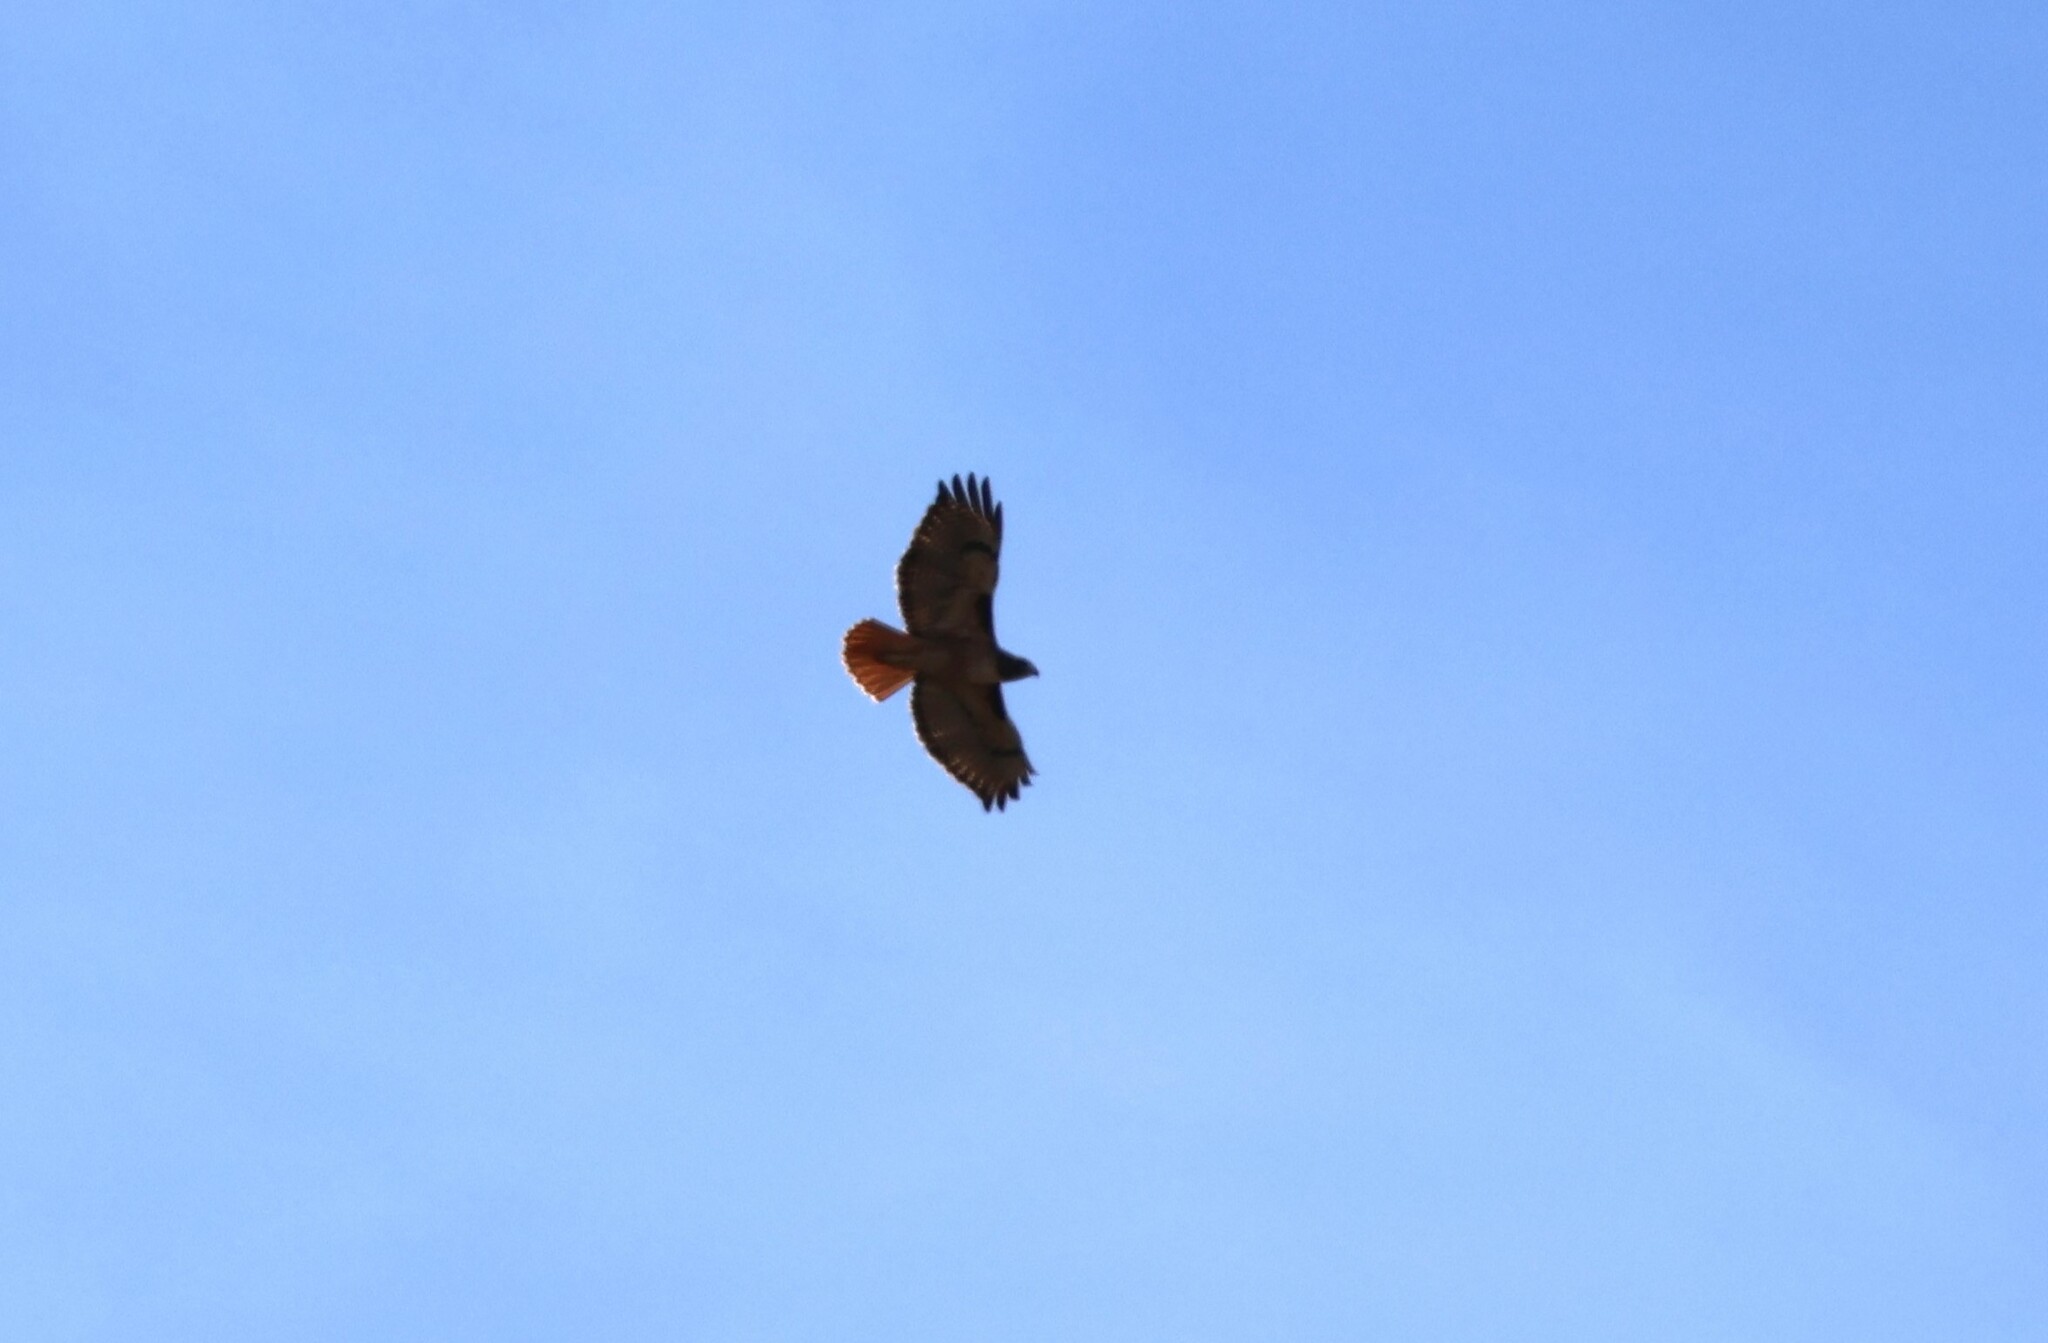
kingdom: Animalia
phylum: Chordata
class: Aves
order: Accipitriformes
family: Accipitridae
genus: Buteo
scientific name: Buteo jamaicensis
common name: Red-tailed hawk
